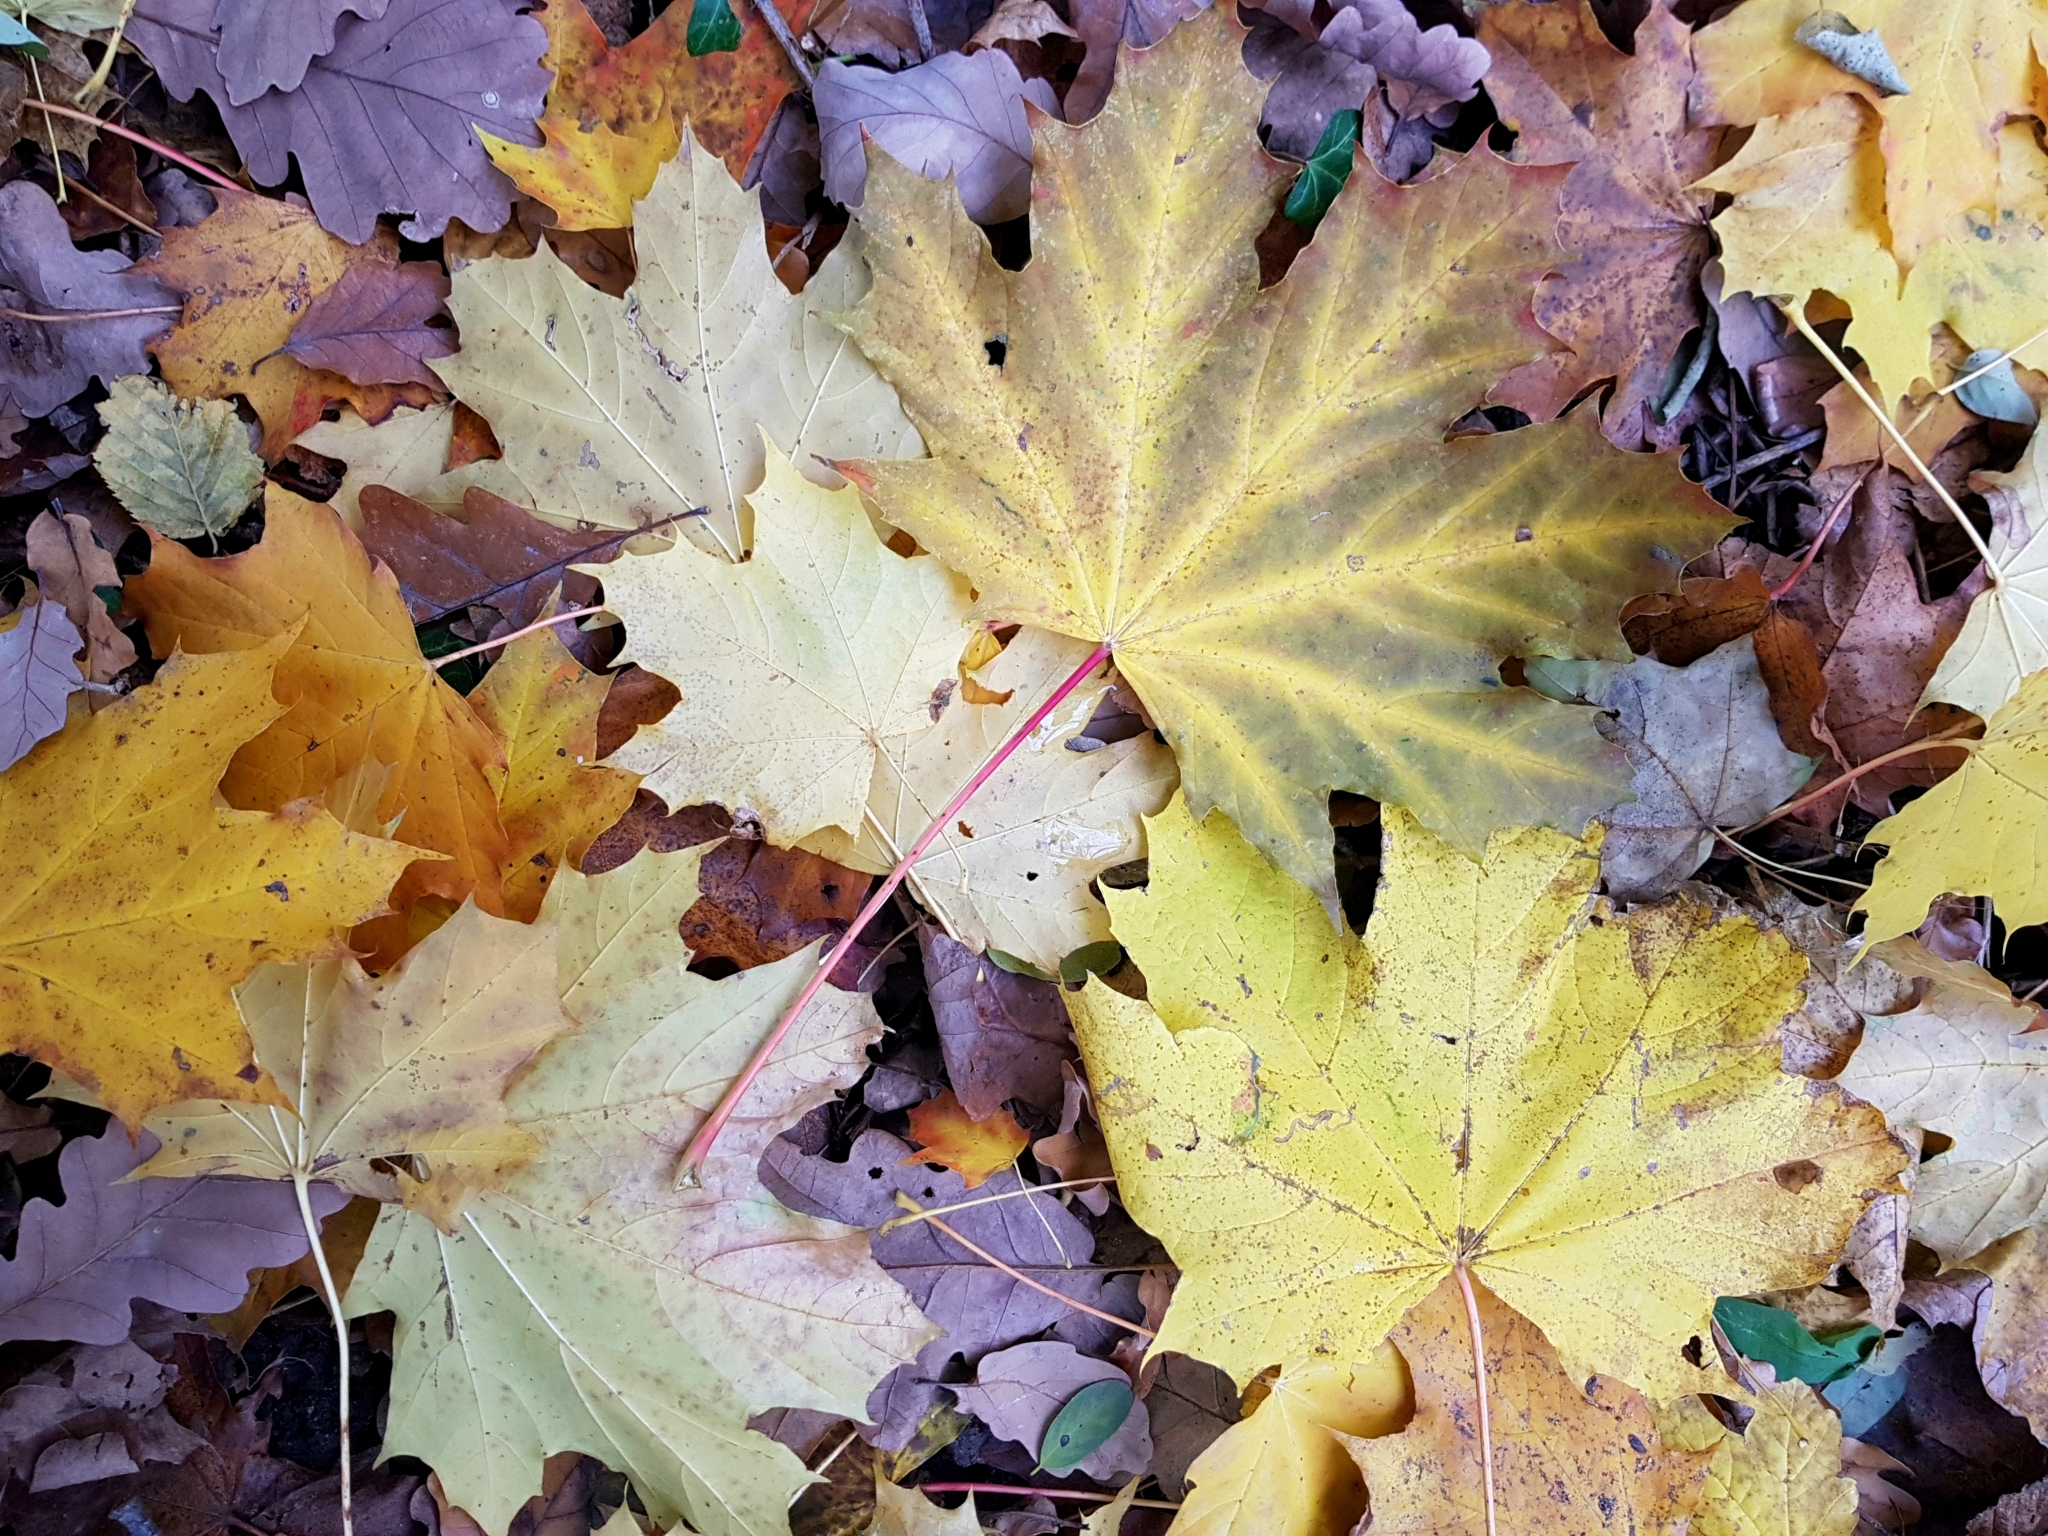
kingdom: Plantae
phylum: Tracheophyta
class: Magnoliopsida
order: Sapindales
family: Sapindaceae
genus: Acer
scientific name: Acer platanoides
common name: Norway maple
